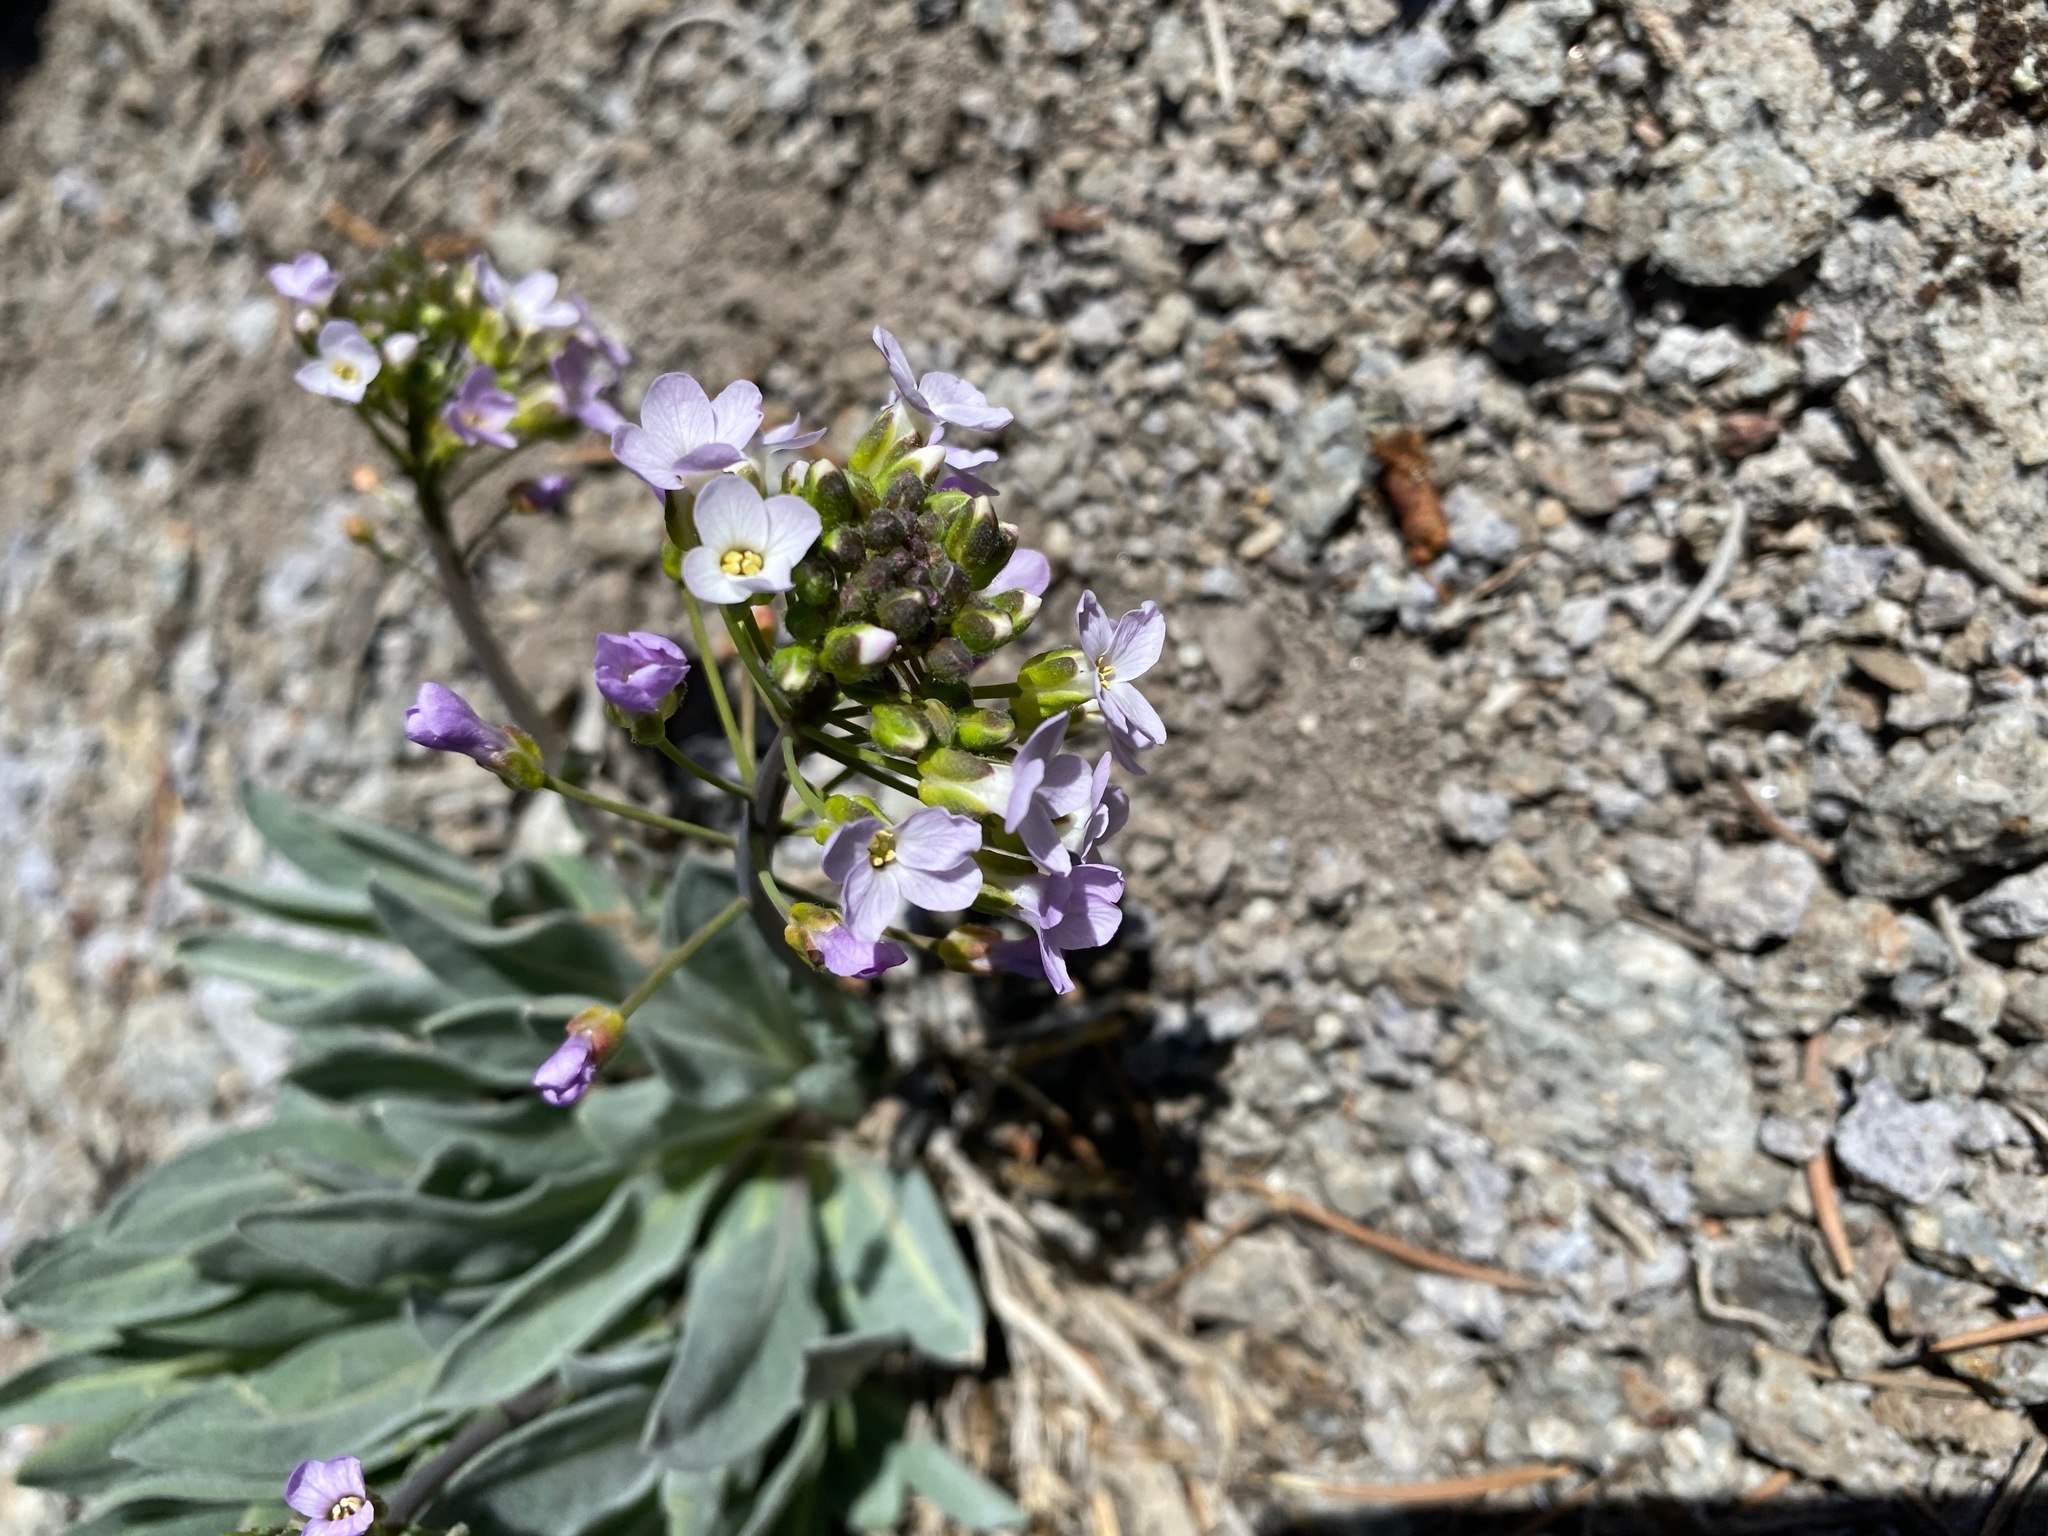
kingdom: Plantae
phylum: Tracheophyta
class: Magnoliopsida
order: Brassicales
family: Brassicaceae
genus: Phoenicaulis
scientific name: Phoenicaulis cheiranthoides
